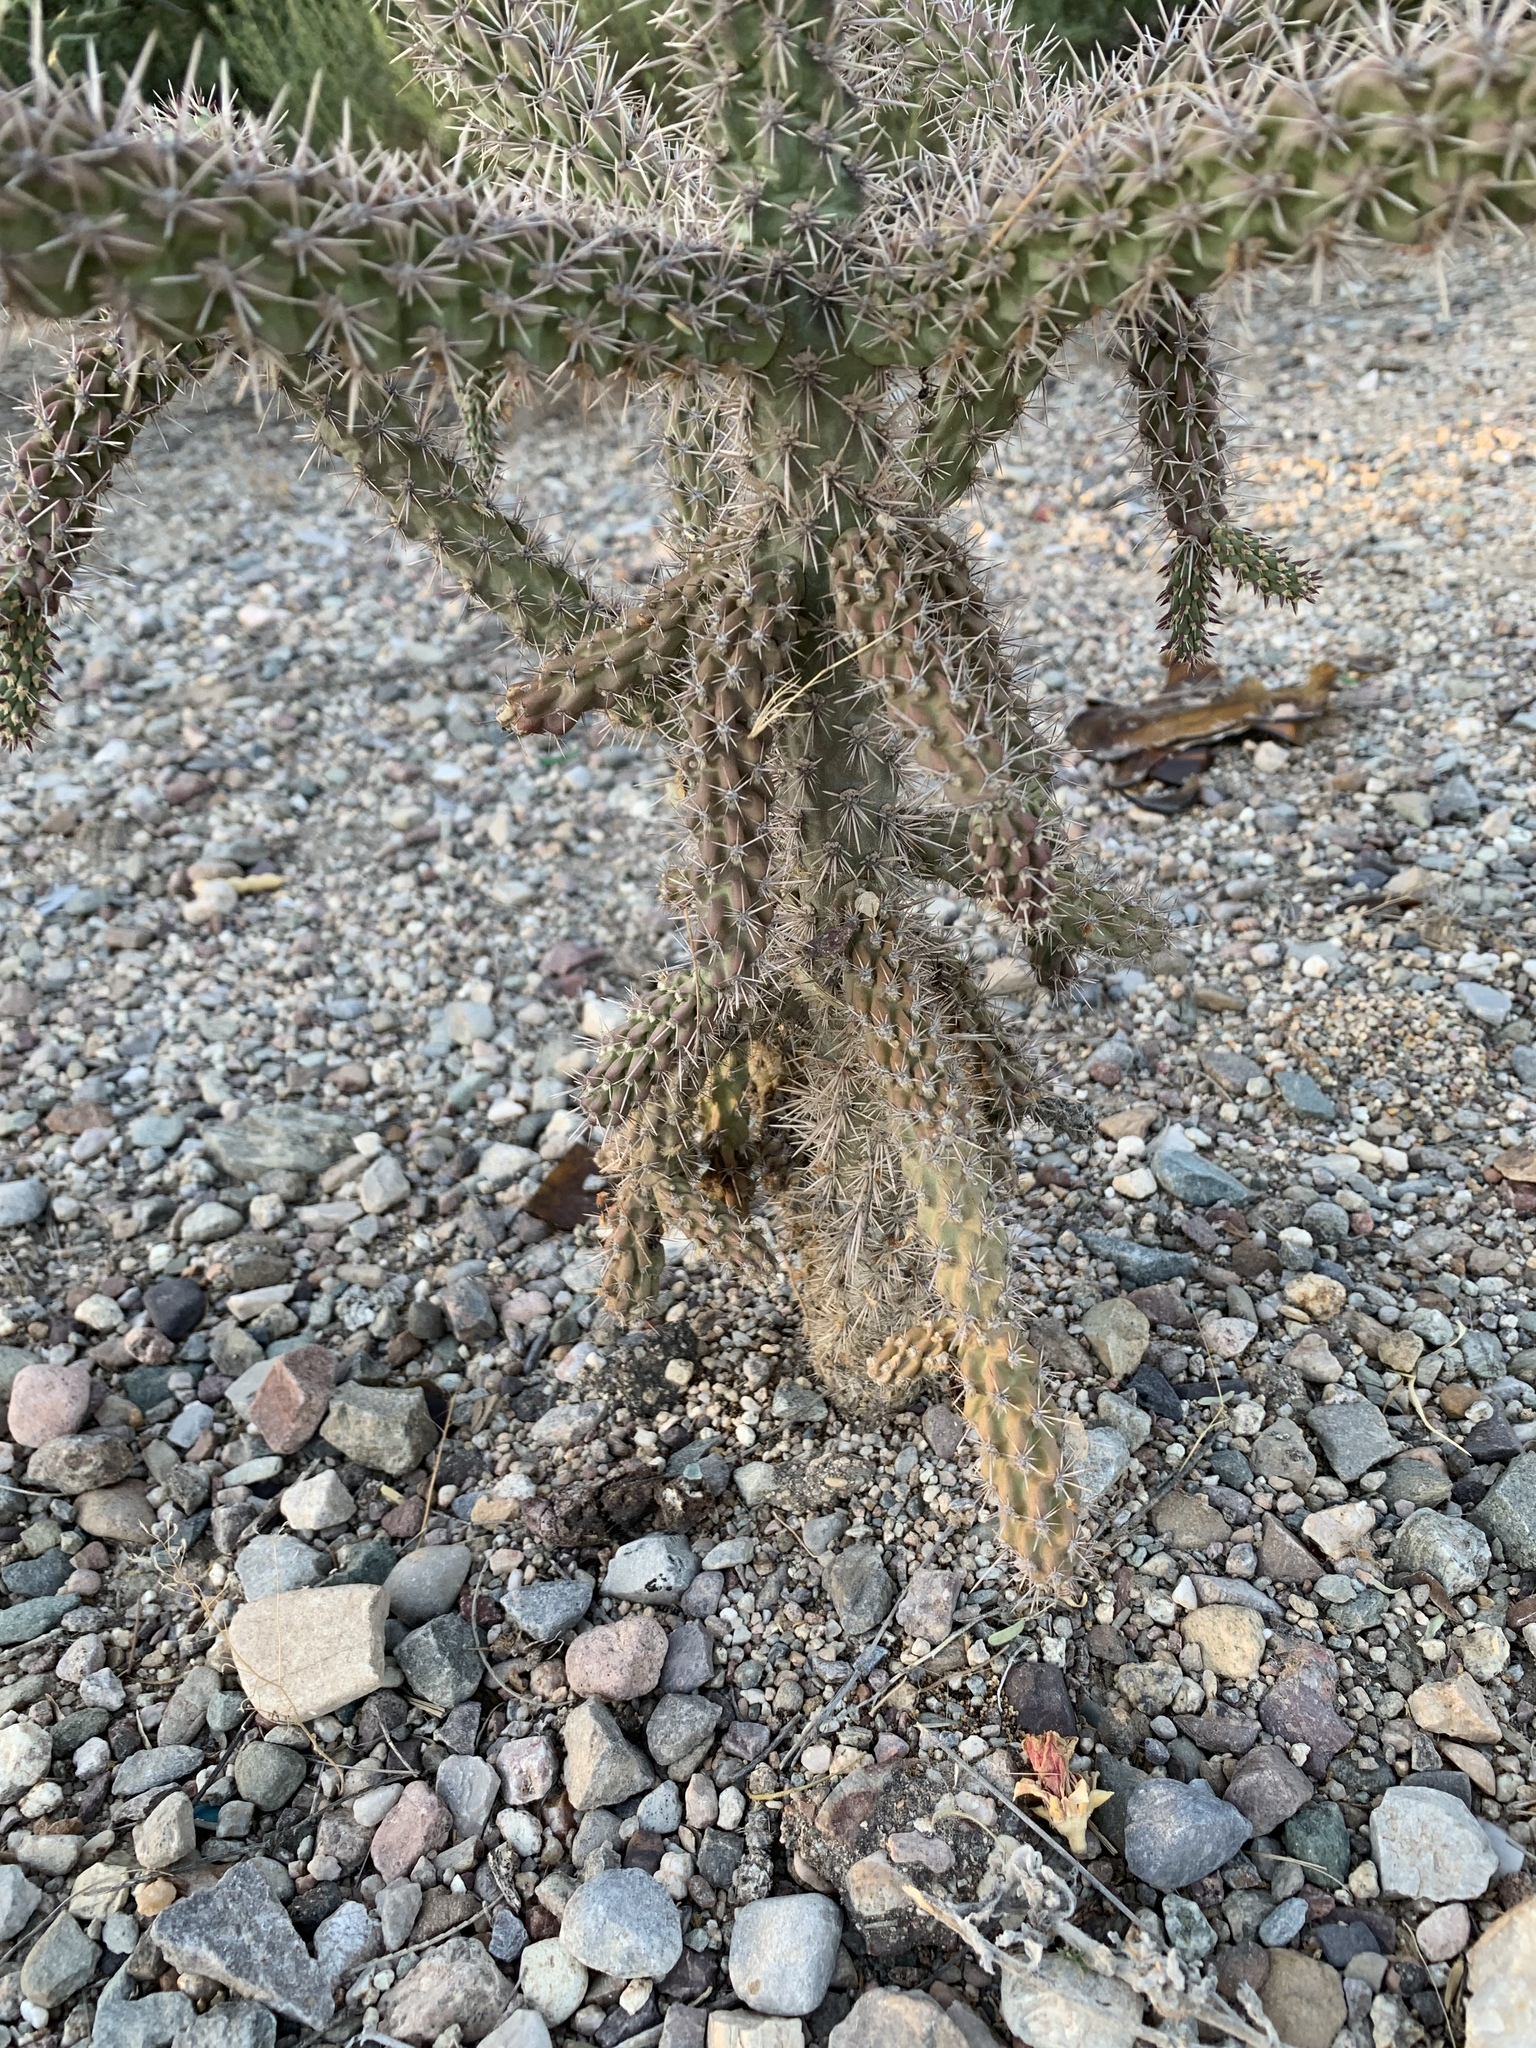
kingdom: Plantae
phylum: Tracheophyta
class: Magnoliopsida
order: Caryophyllales
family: Cactaceae
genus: Cylindropuntia
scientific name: Cylindropuntia imbricata
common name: Candelabrum cactus
